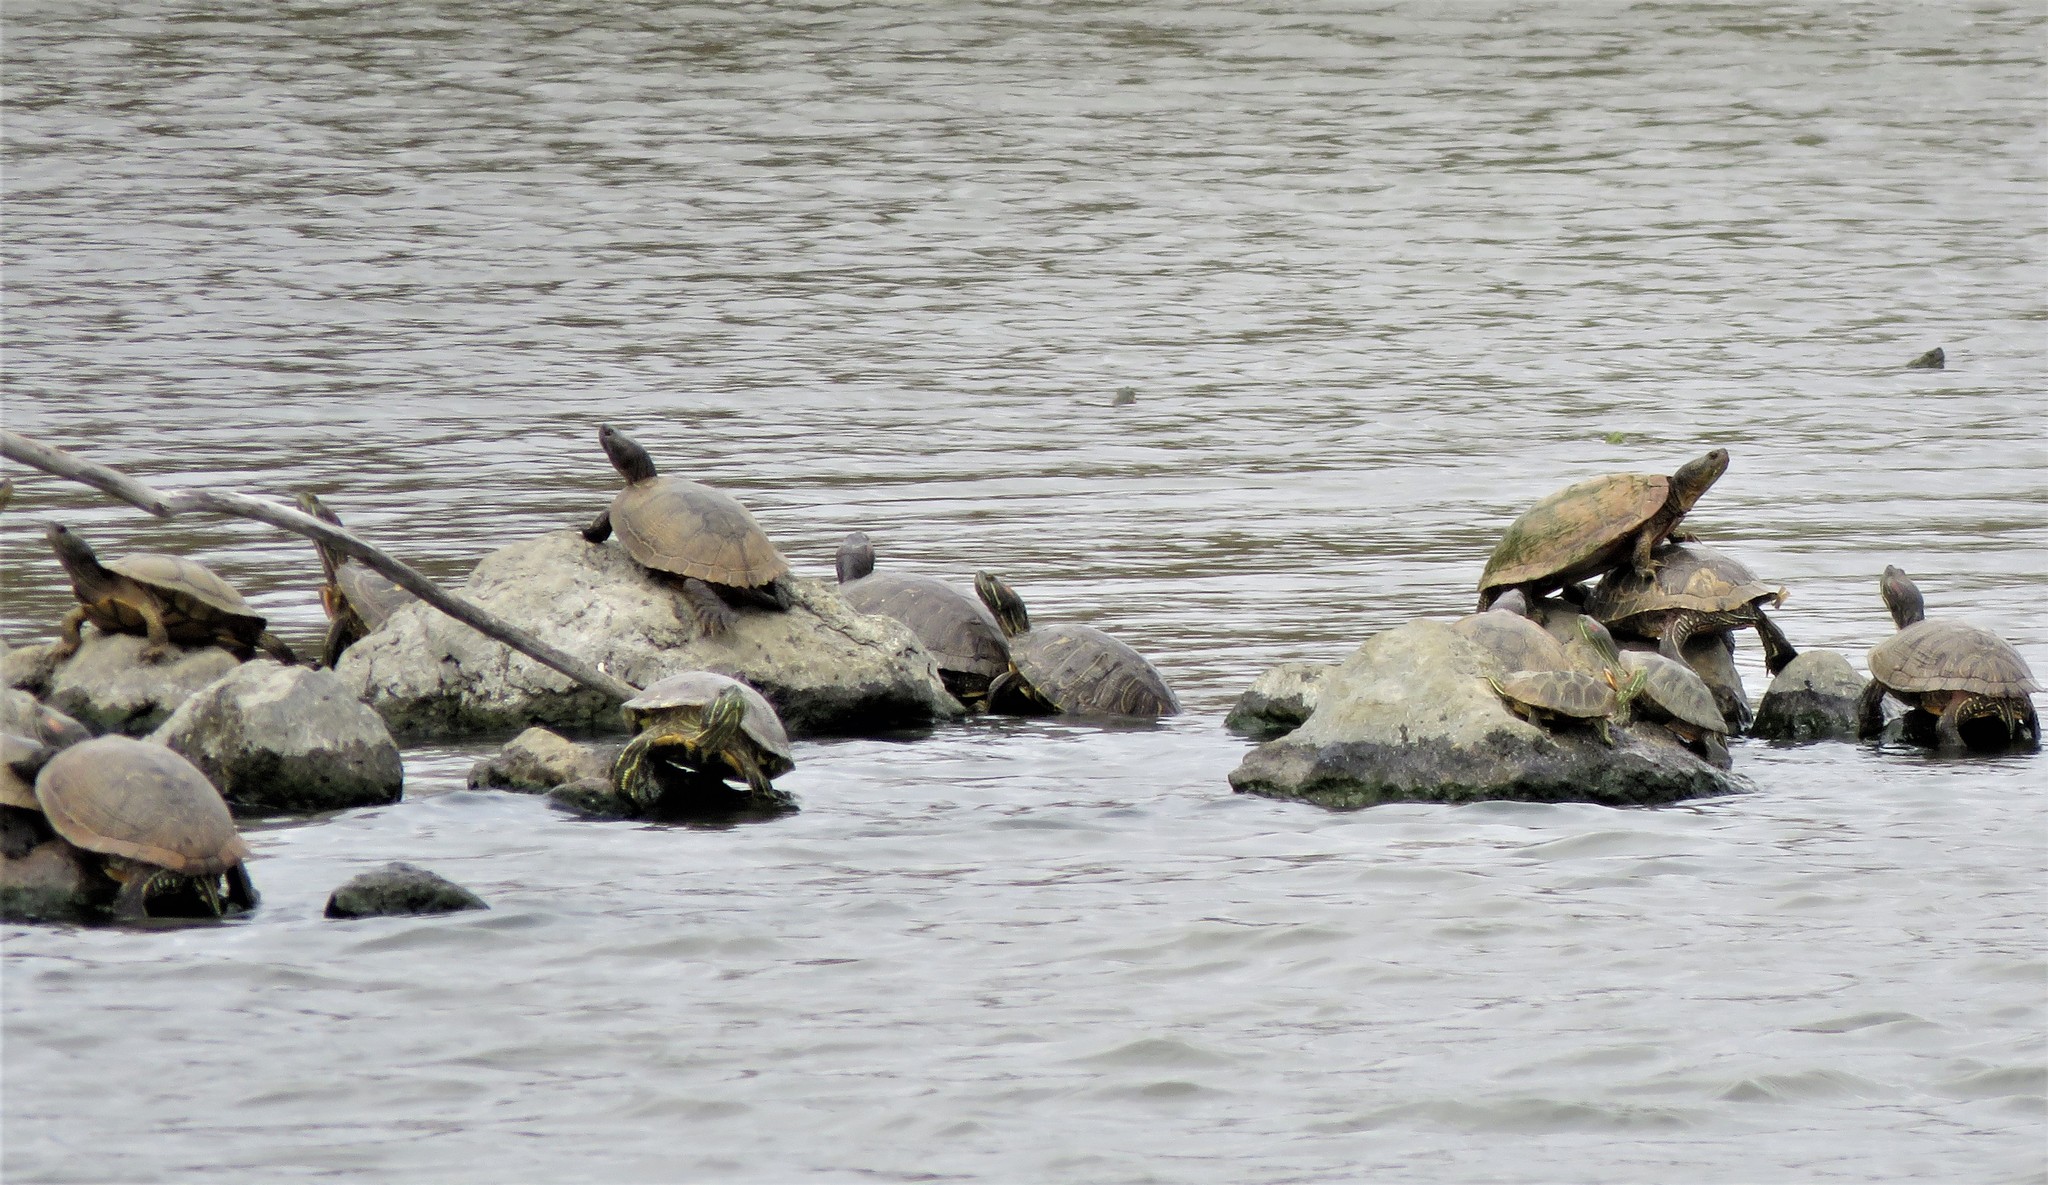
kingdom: Animalia
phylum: Chordata
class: Testudines
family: Emydidae
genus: Trachemys
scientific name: Trachemys scripta
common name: Slider
